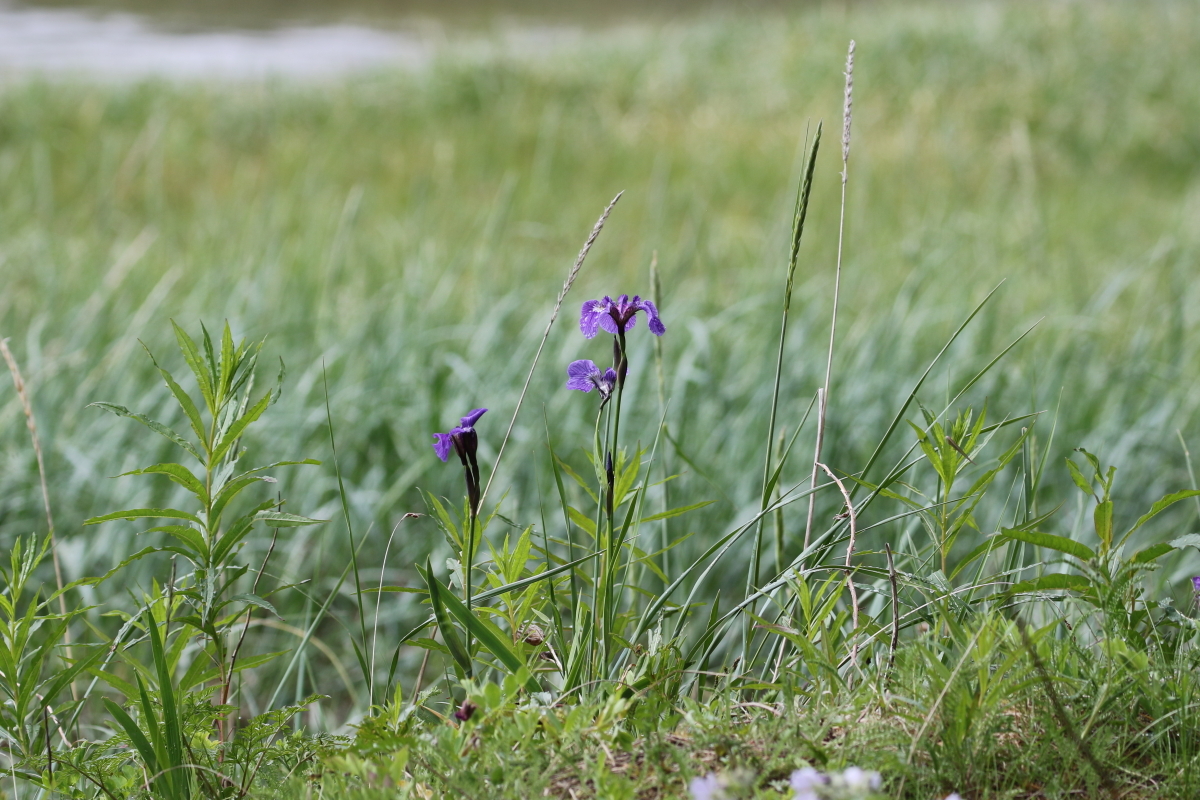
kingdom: Plantae
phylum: Tracheophyta
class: Liliopsida
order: Asparagales
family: Iridaceae
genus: Iris
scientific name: Iris setosa
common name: Arctic blue flag
